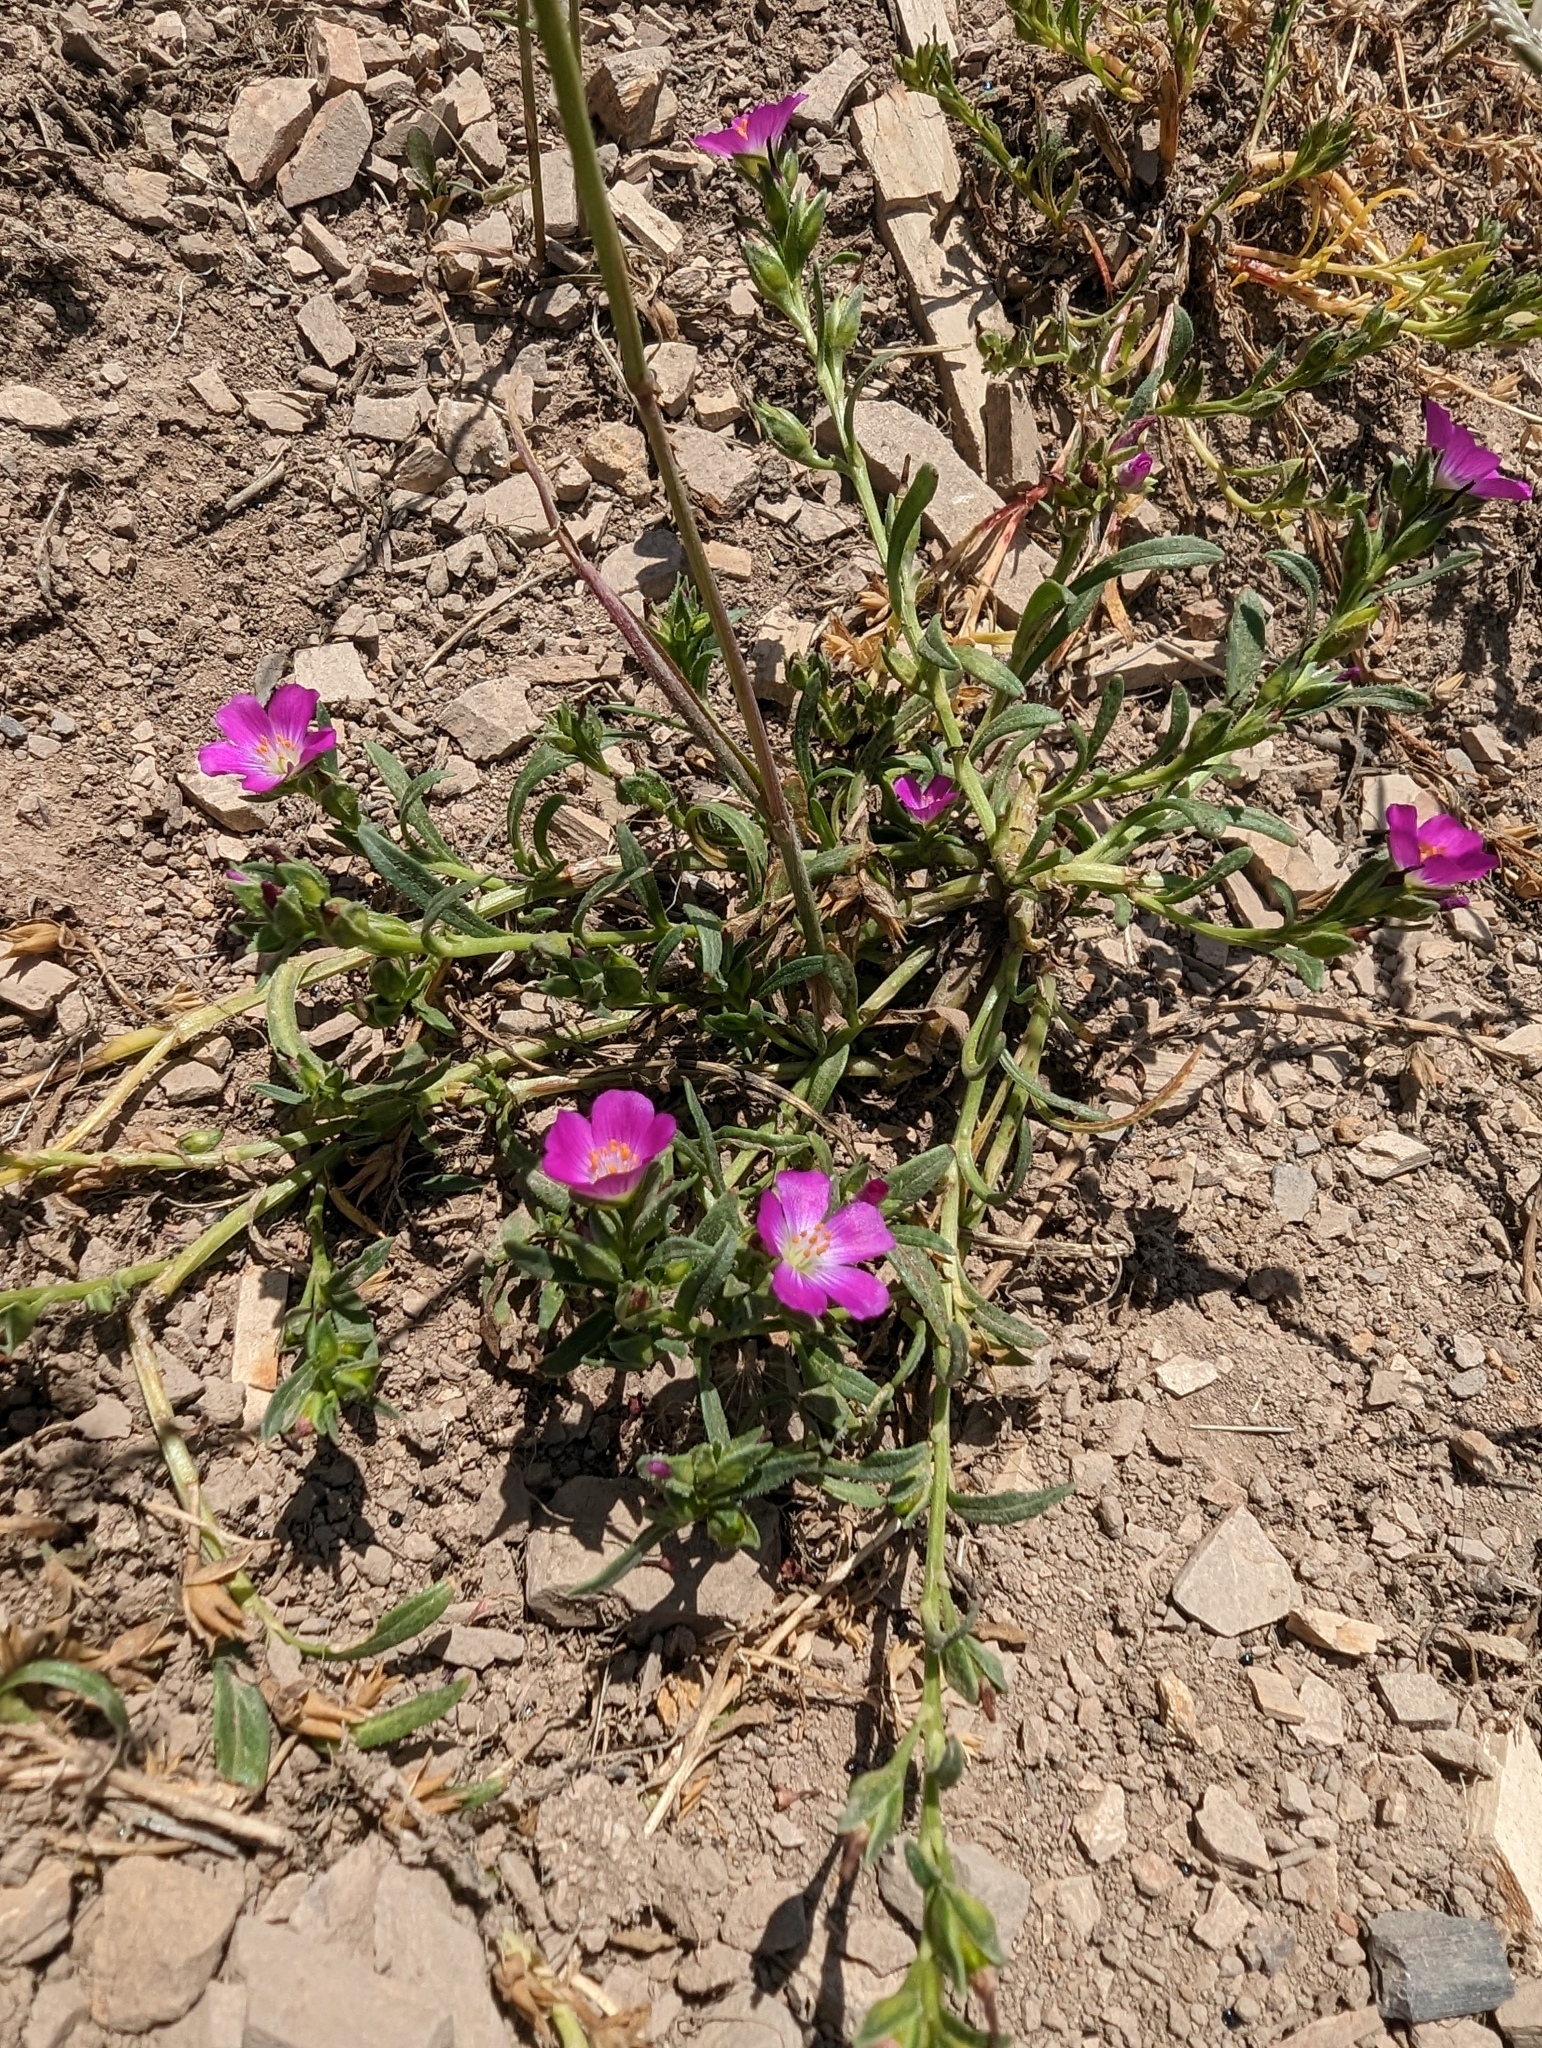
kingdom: Plantae
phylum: Tracheophyta
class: Magnoliopsida
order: Caryophyllales
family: Montiaceae
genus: Calandrinia
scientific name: Calandrinia menziesii
